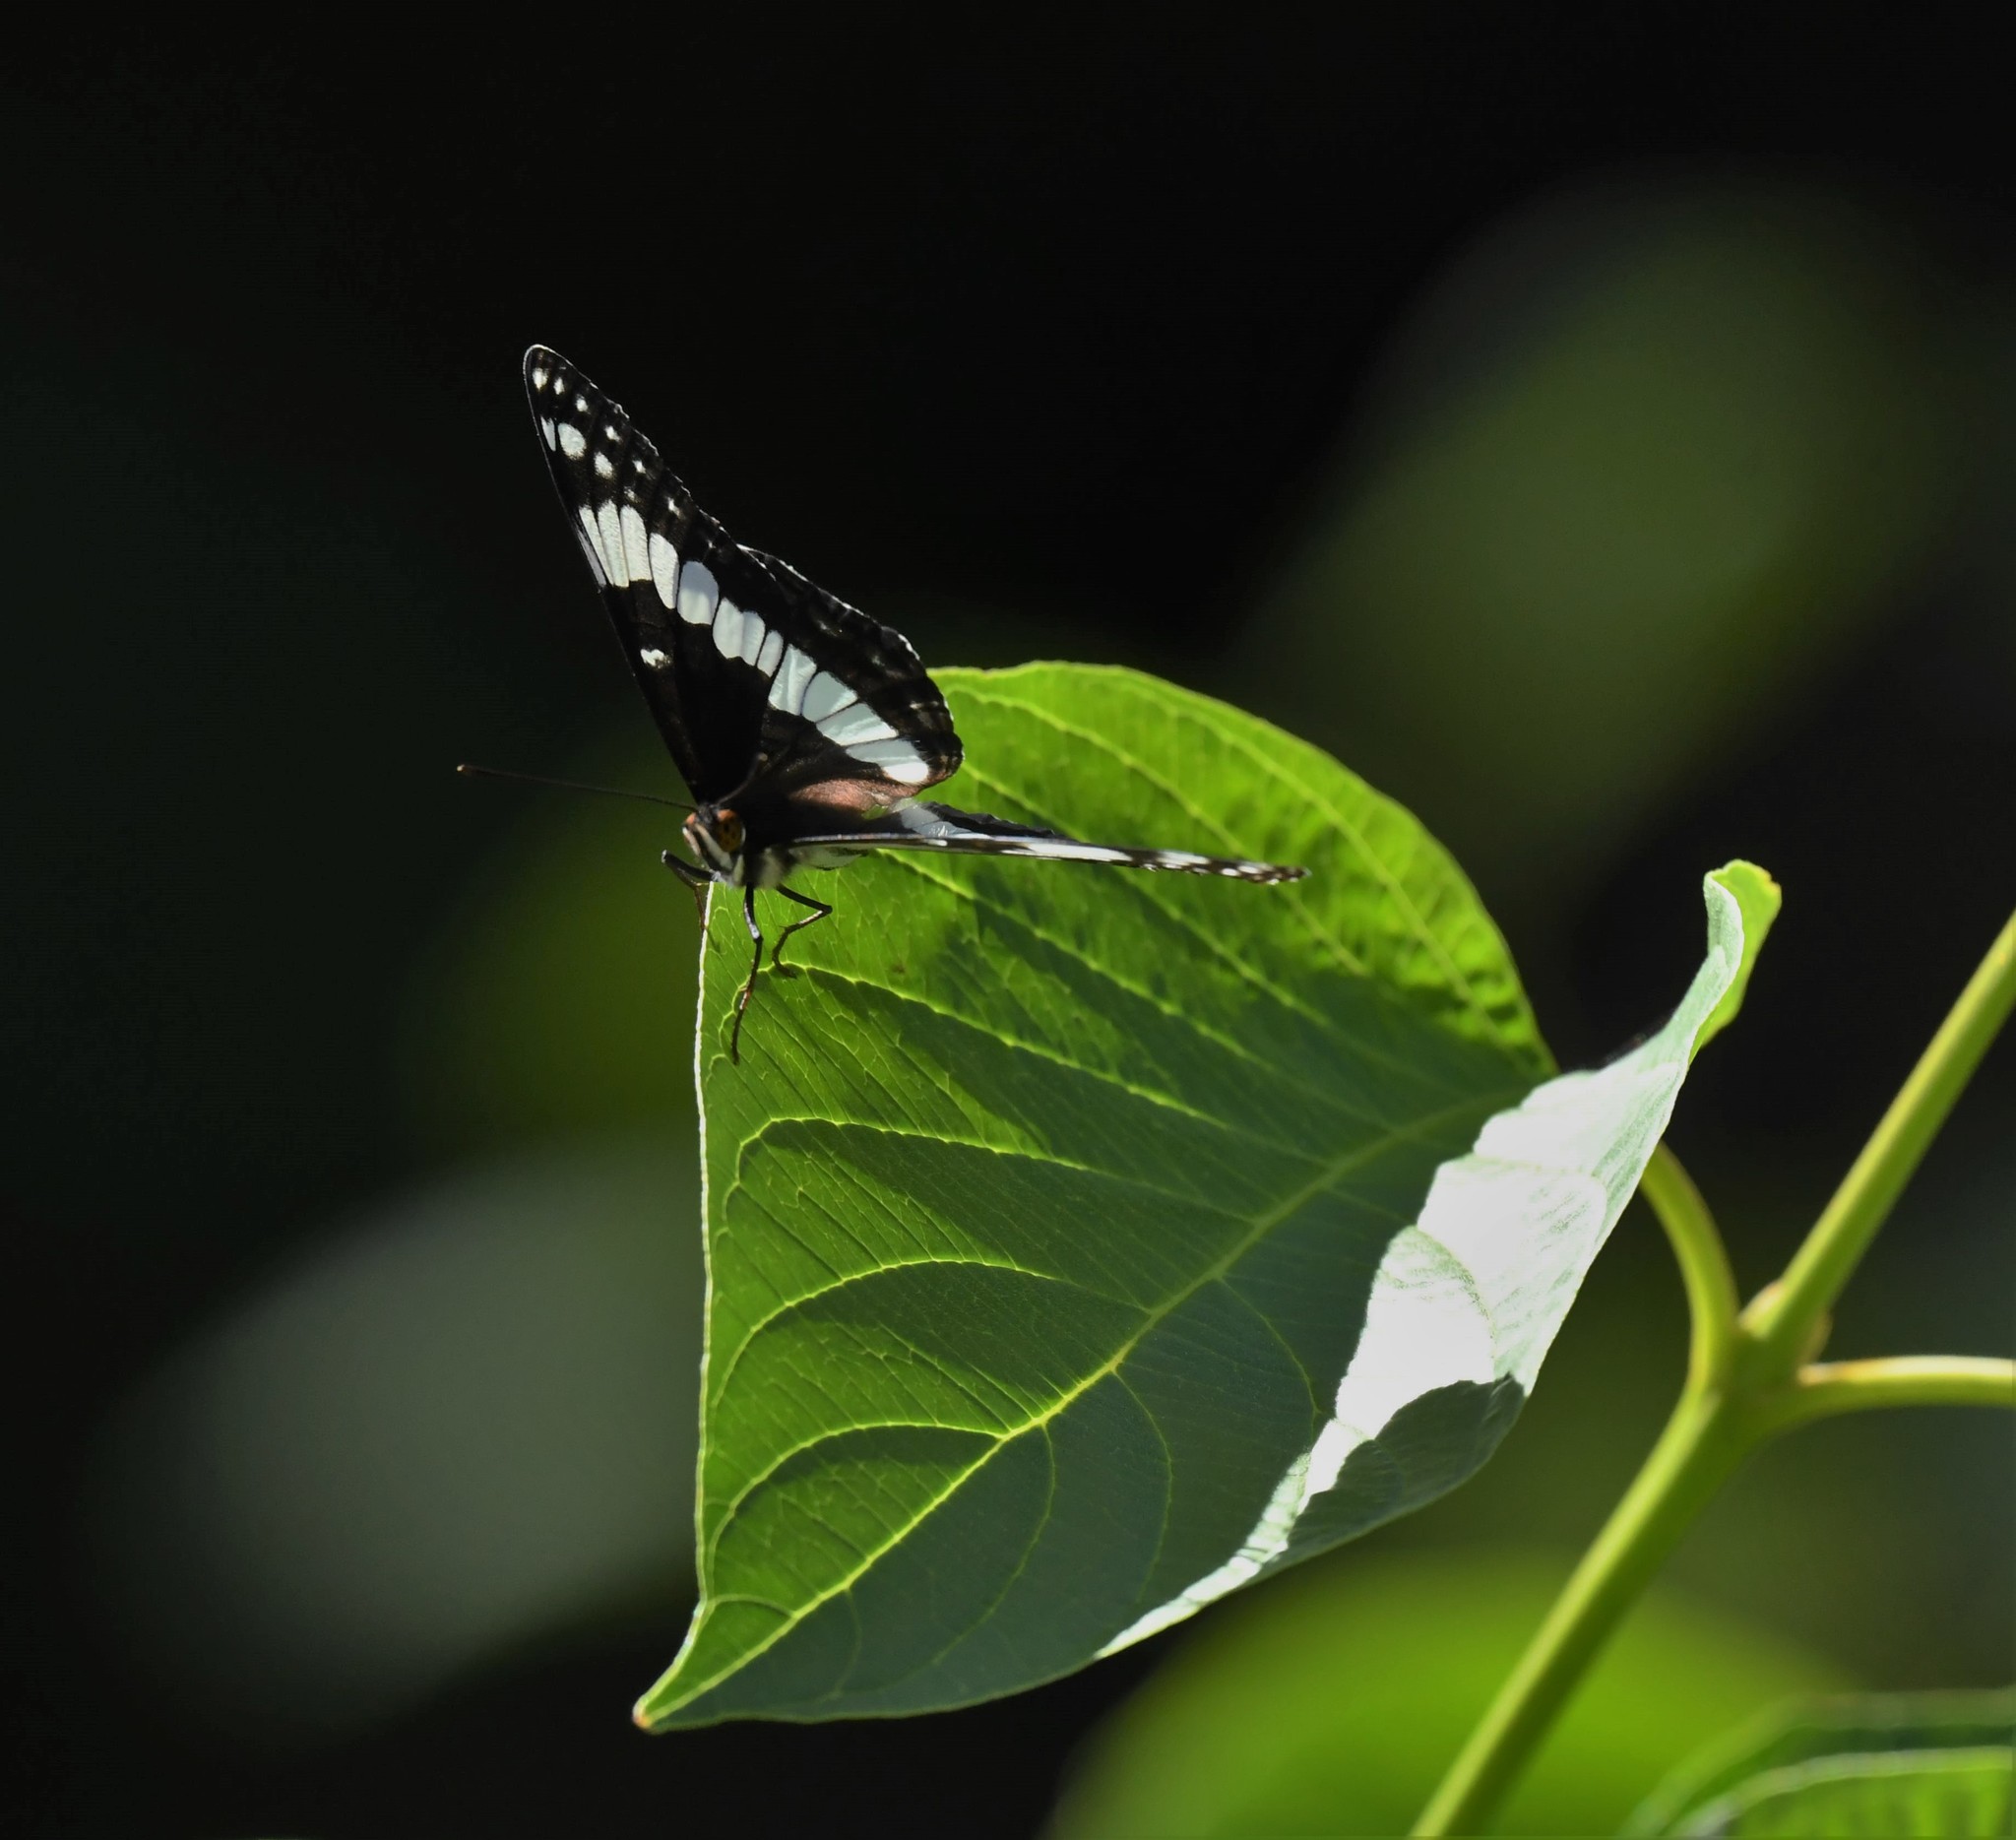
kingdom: Animalia
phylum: Arthropoda
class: Insecta
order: Lepidoptera
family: Nymphalidae
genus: Limenitis
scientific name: Limenitis weidemeyerii
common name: Weidemeyer's admiral
